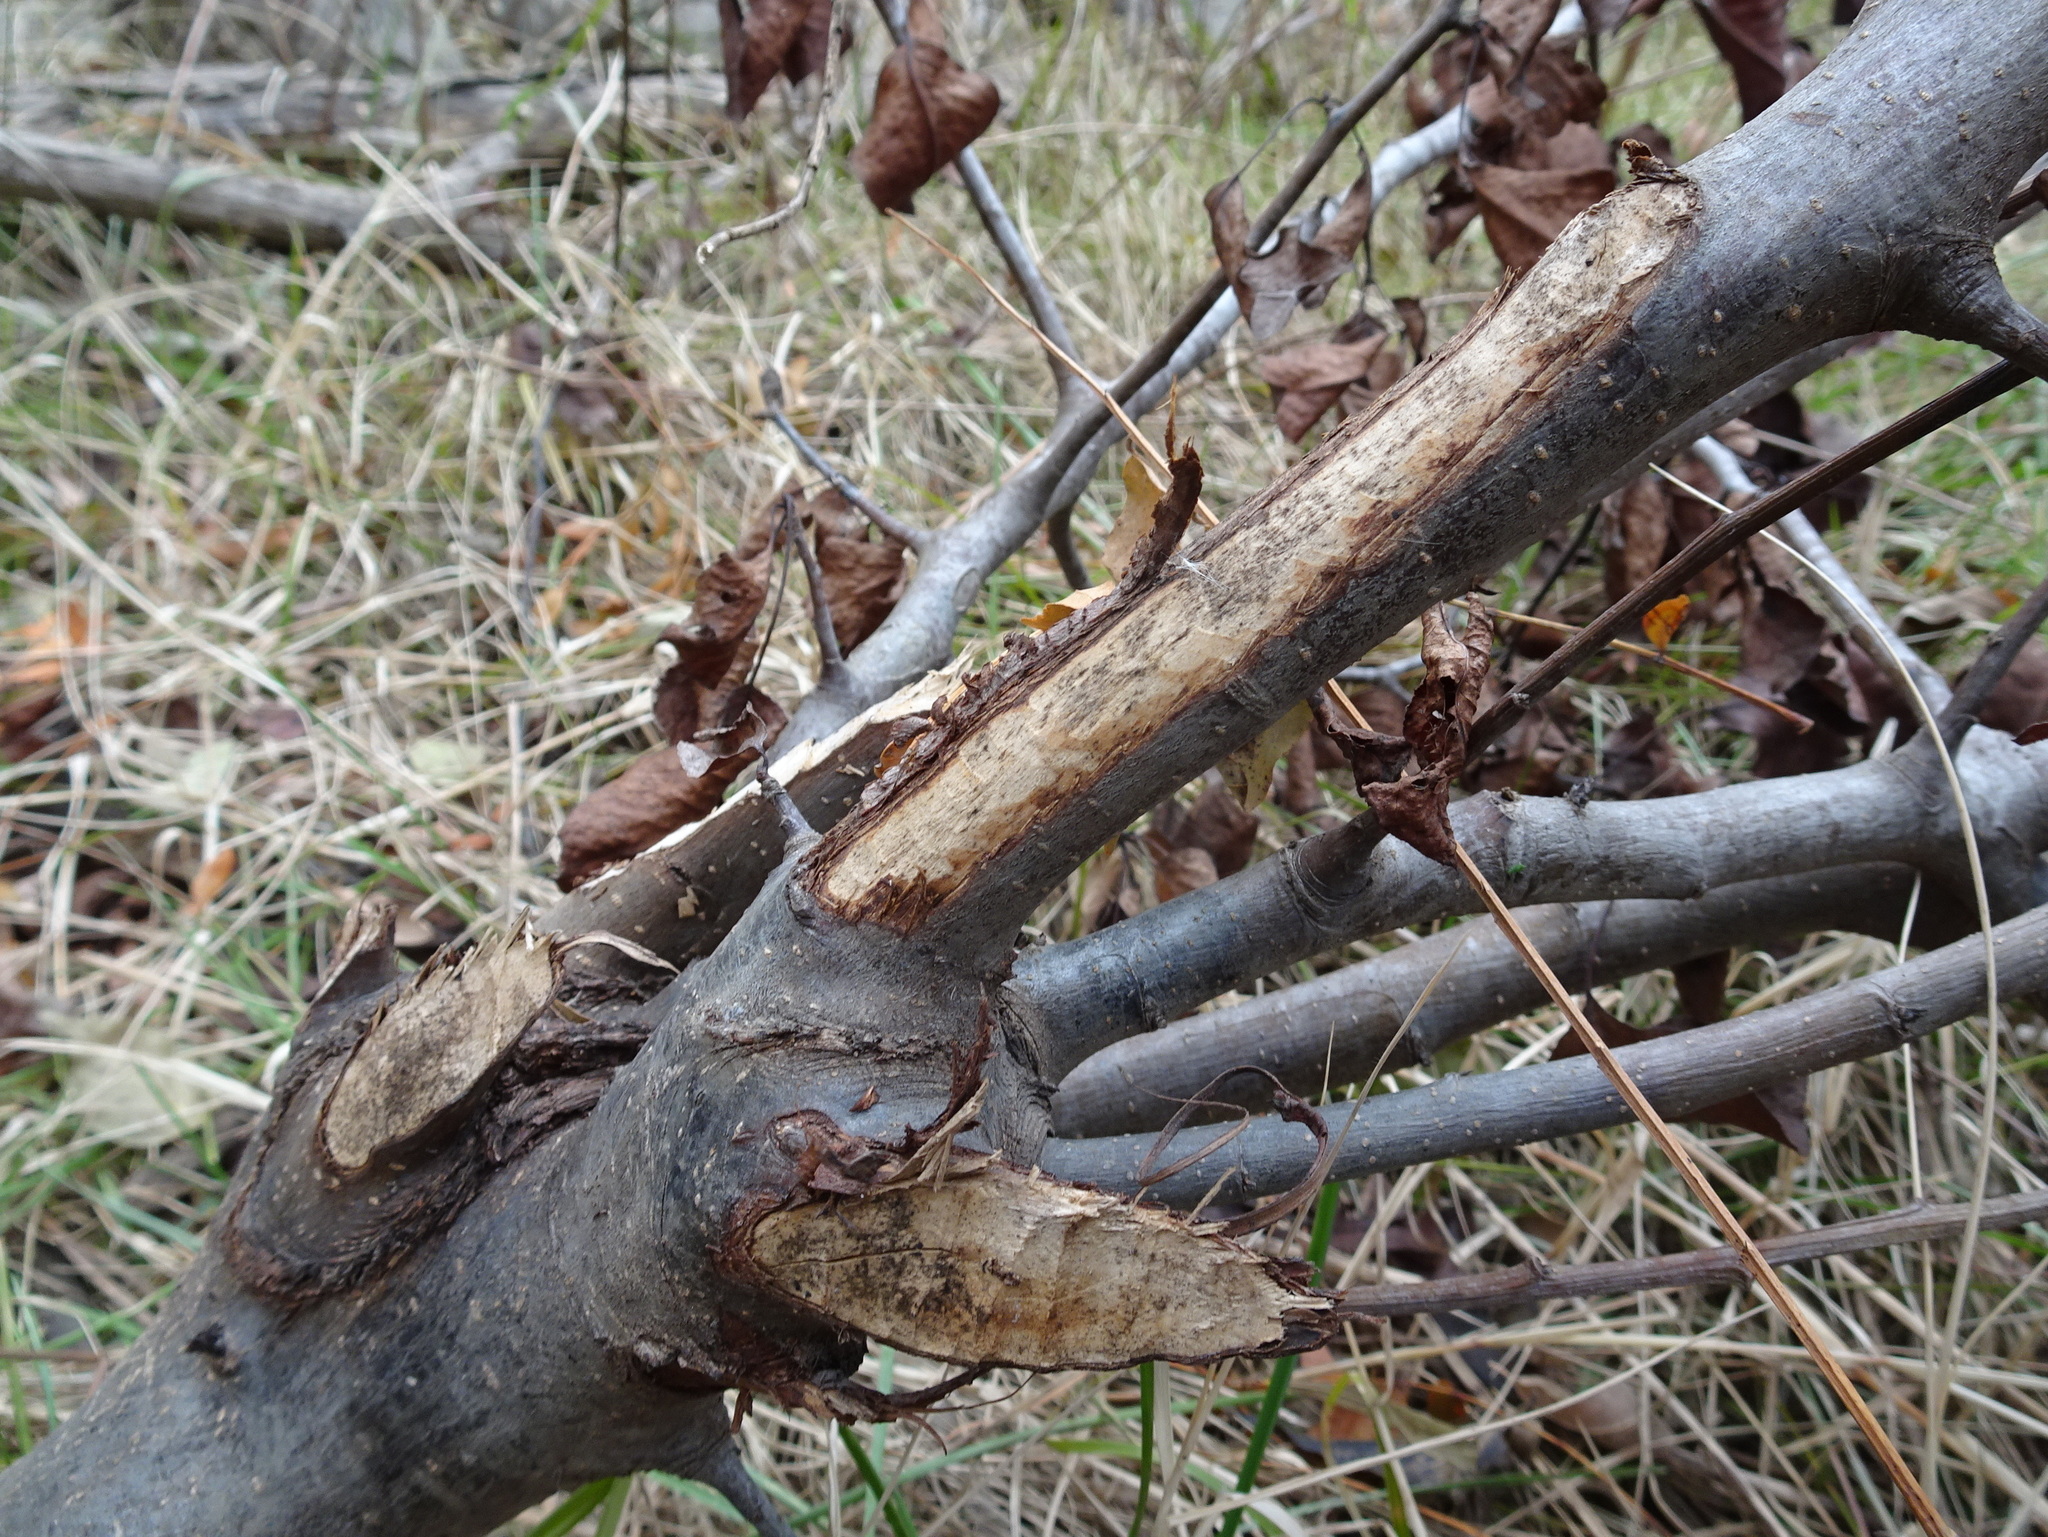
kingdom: Animalia
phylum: Chordata
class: Mammalia
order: Rodentia
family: Castoridae
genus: Castor
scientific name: Castor canadensis
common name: American beaver
